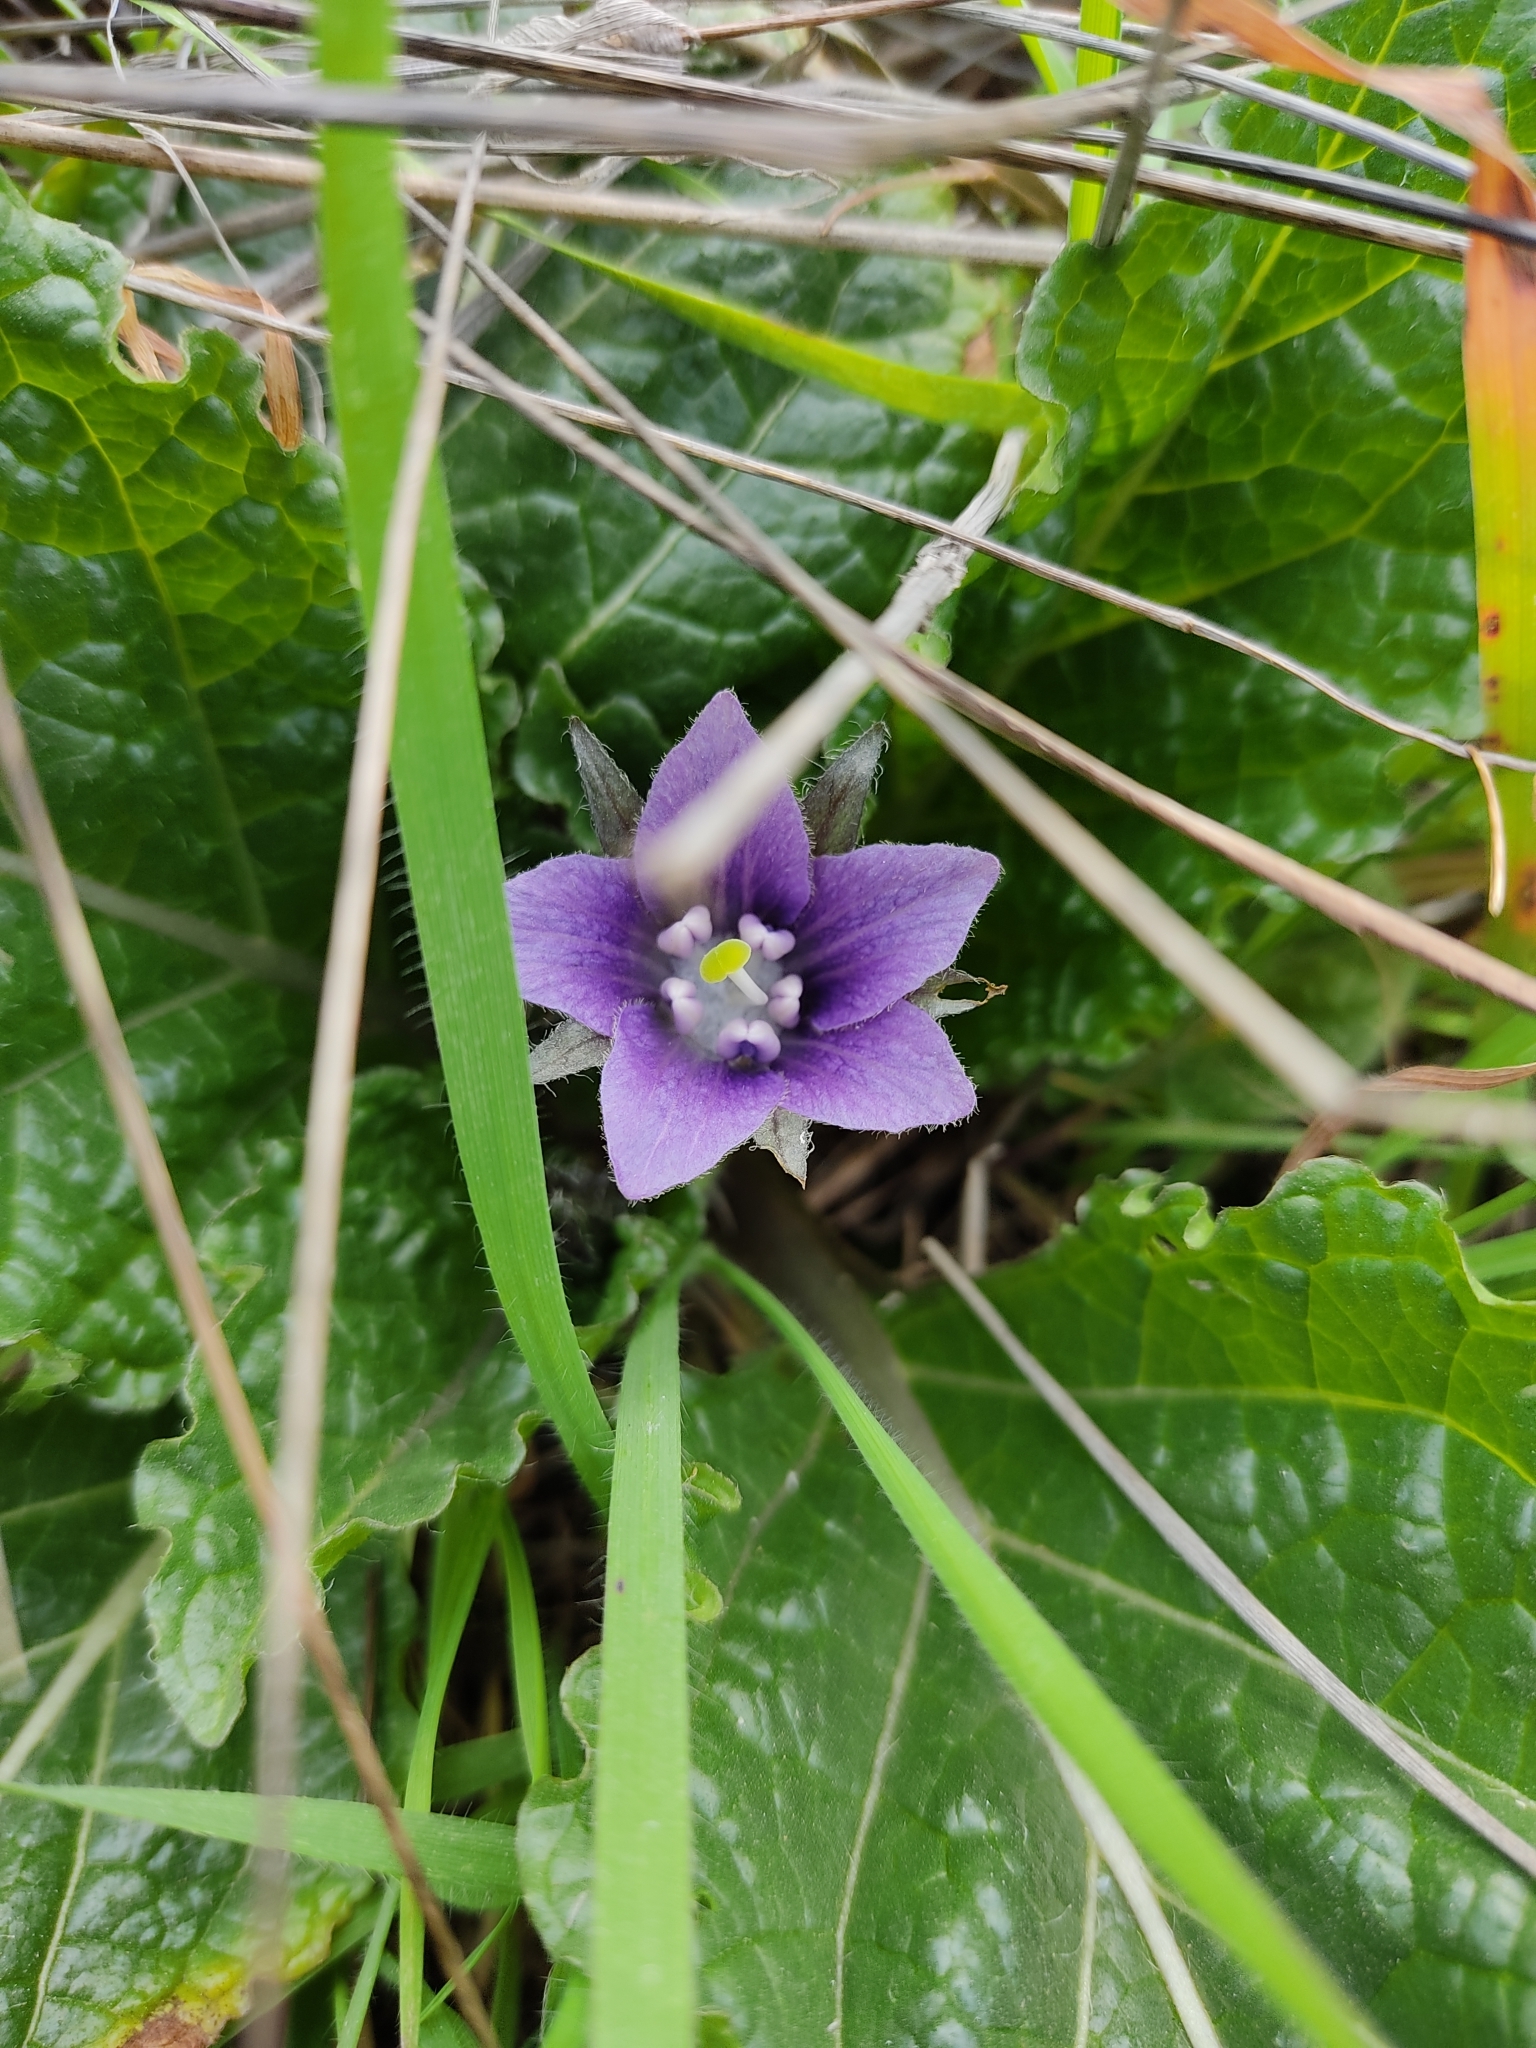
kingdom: Plantae
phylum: Tracheophyta
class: Magnoliopsida
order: Solanales
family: Solanaceae
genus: Mandragora
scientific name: Mandragora officinarum
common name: Mandrake
